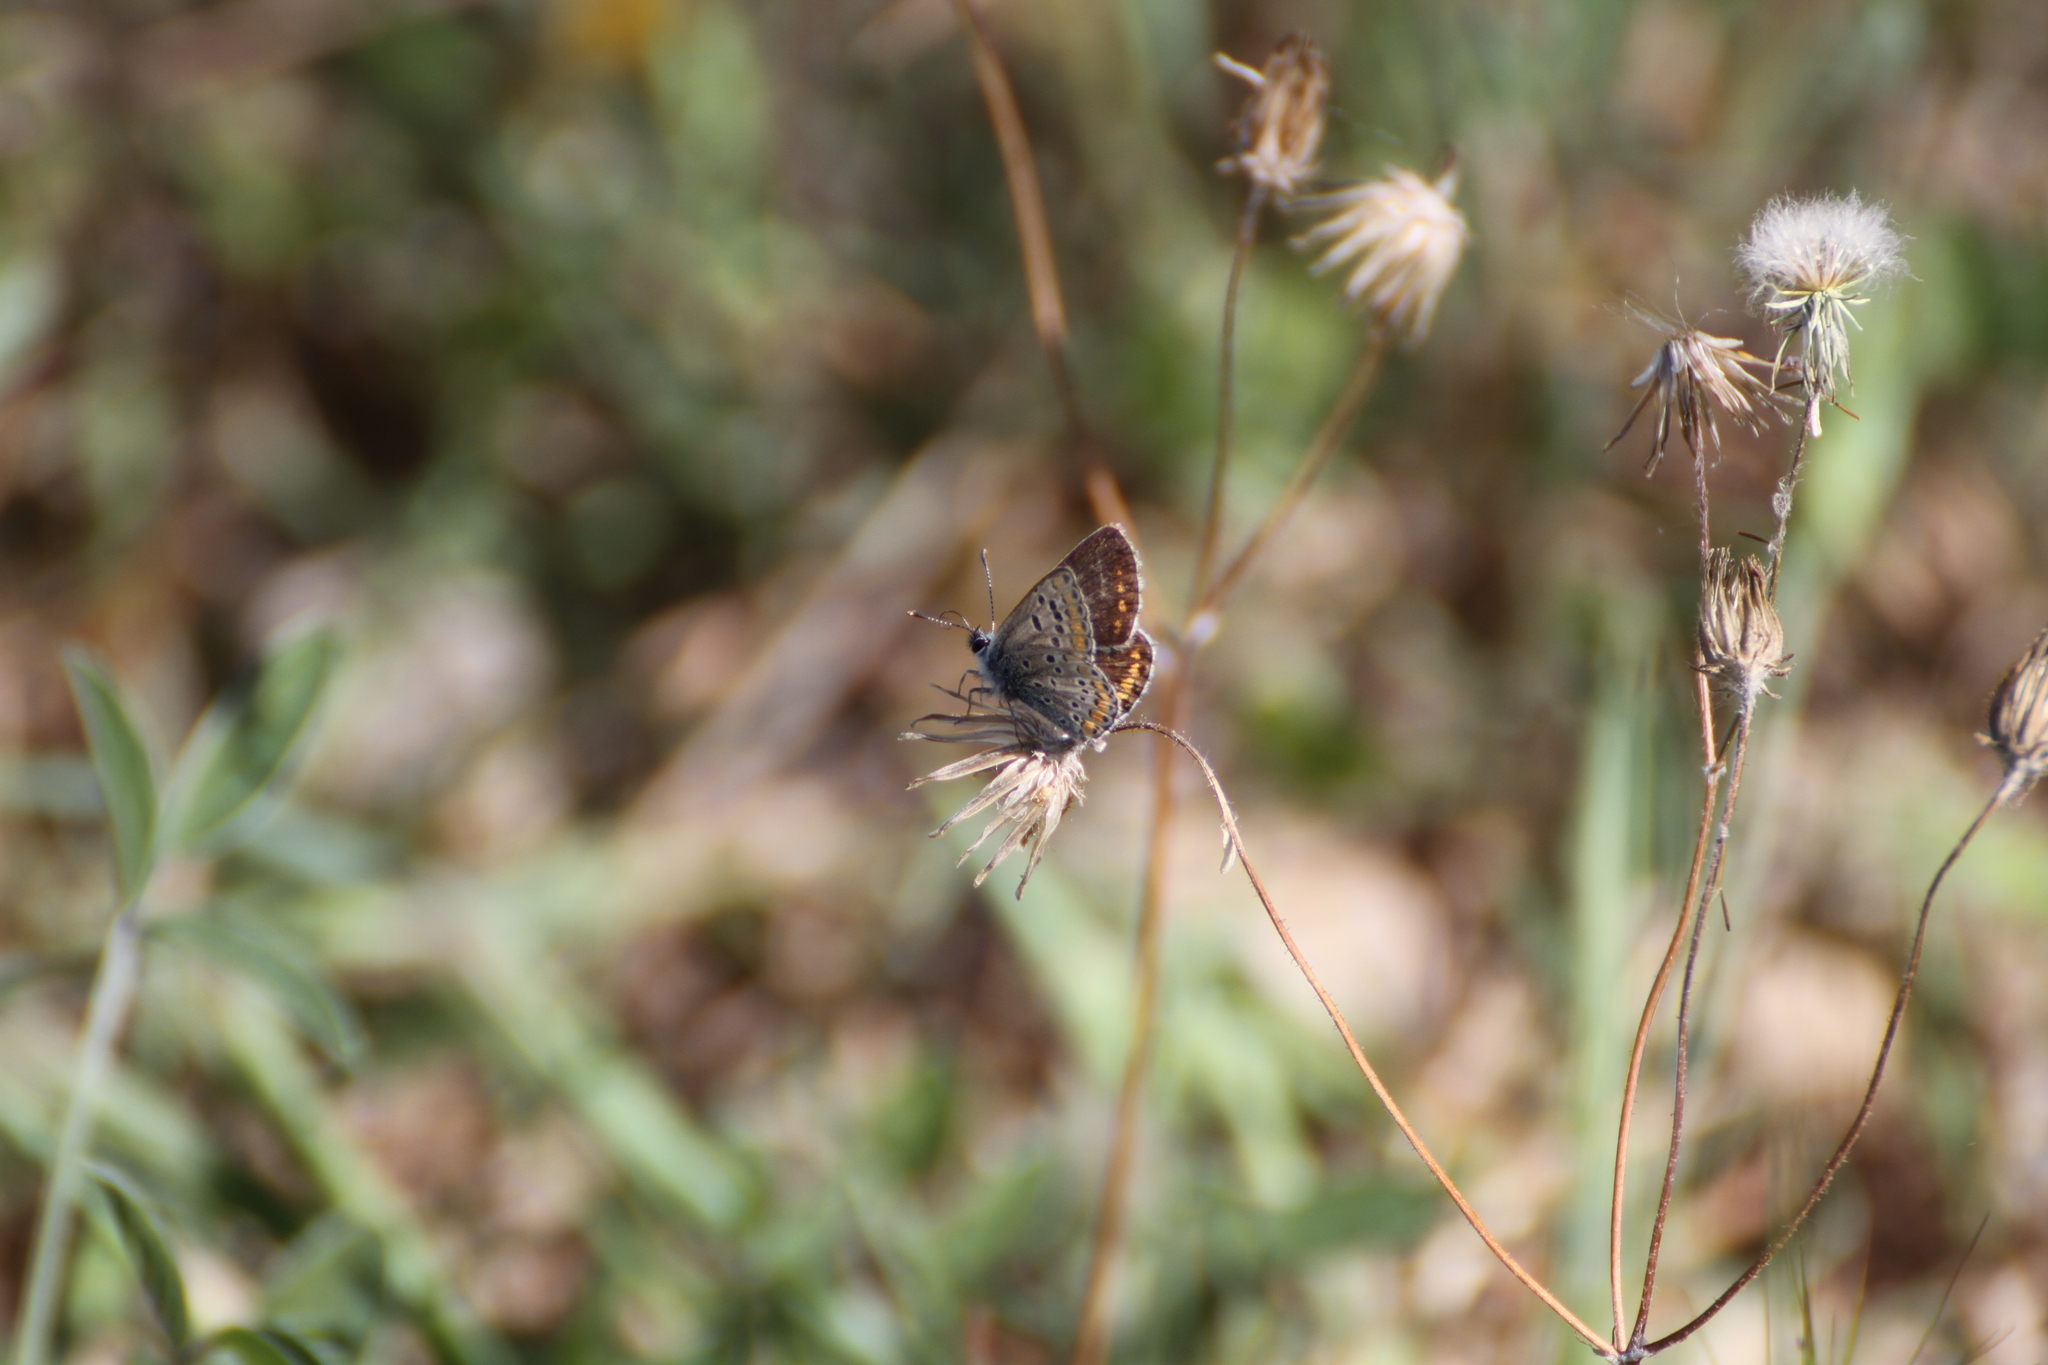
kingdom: Animalia
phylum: Arthropoda
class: Insecta
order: Lepidoptera
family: Lycaenidae
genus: Aricia
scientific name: Aricia agestis
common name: Brown argus
